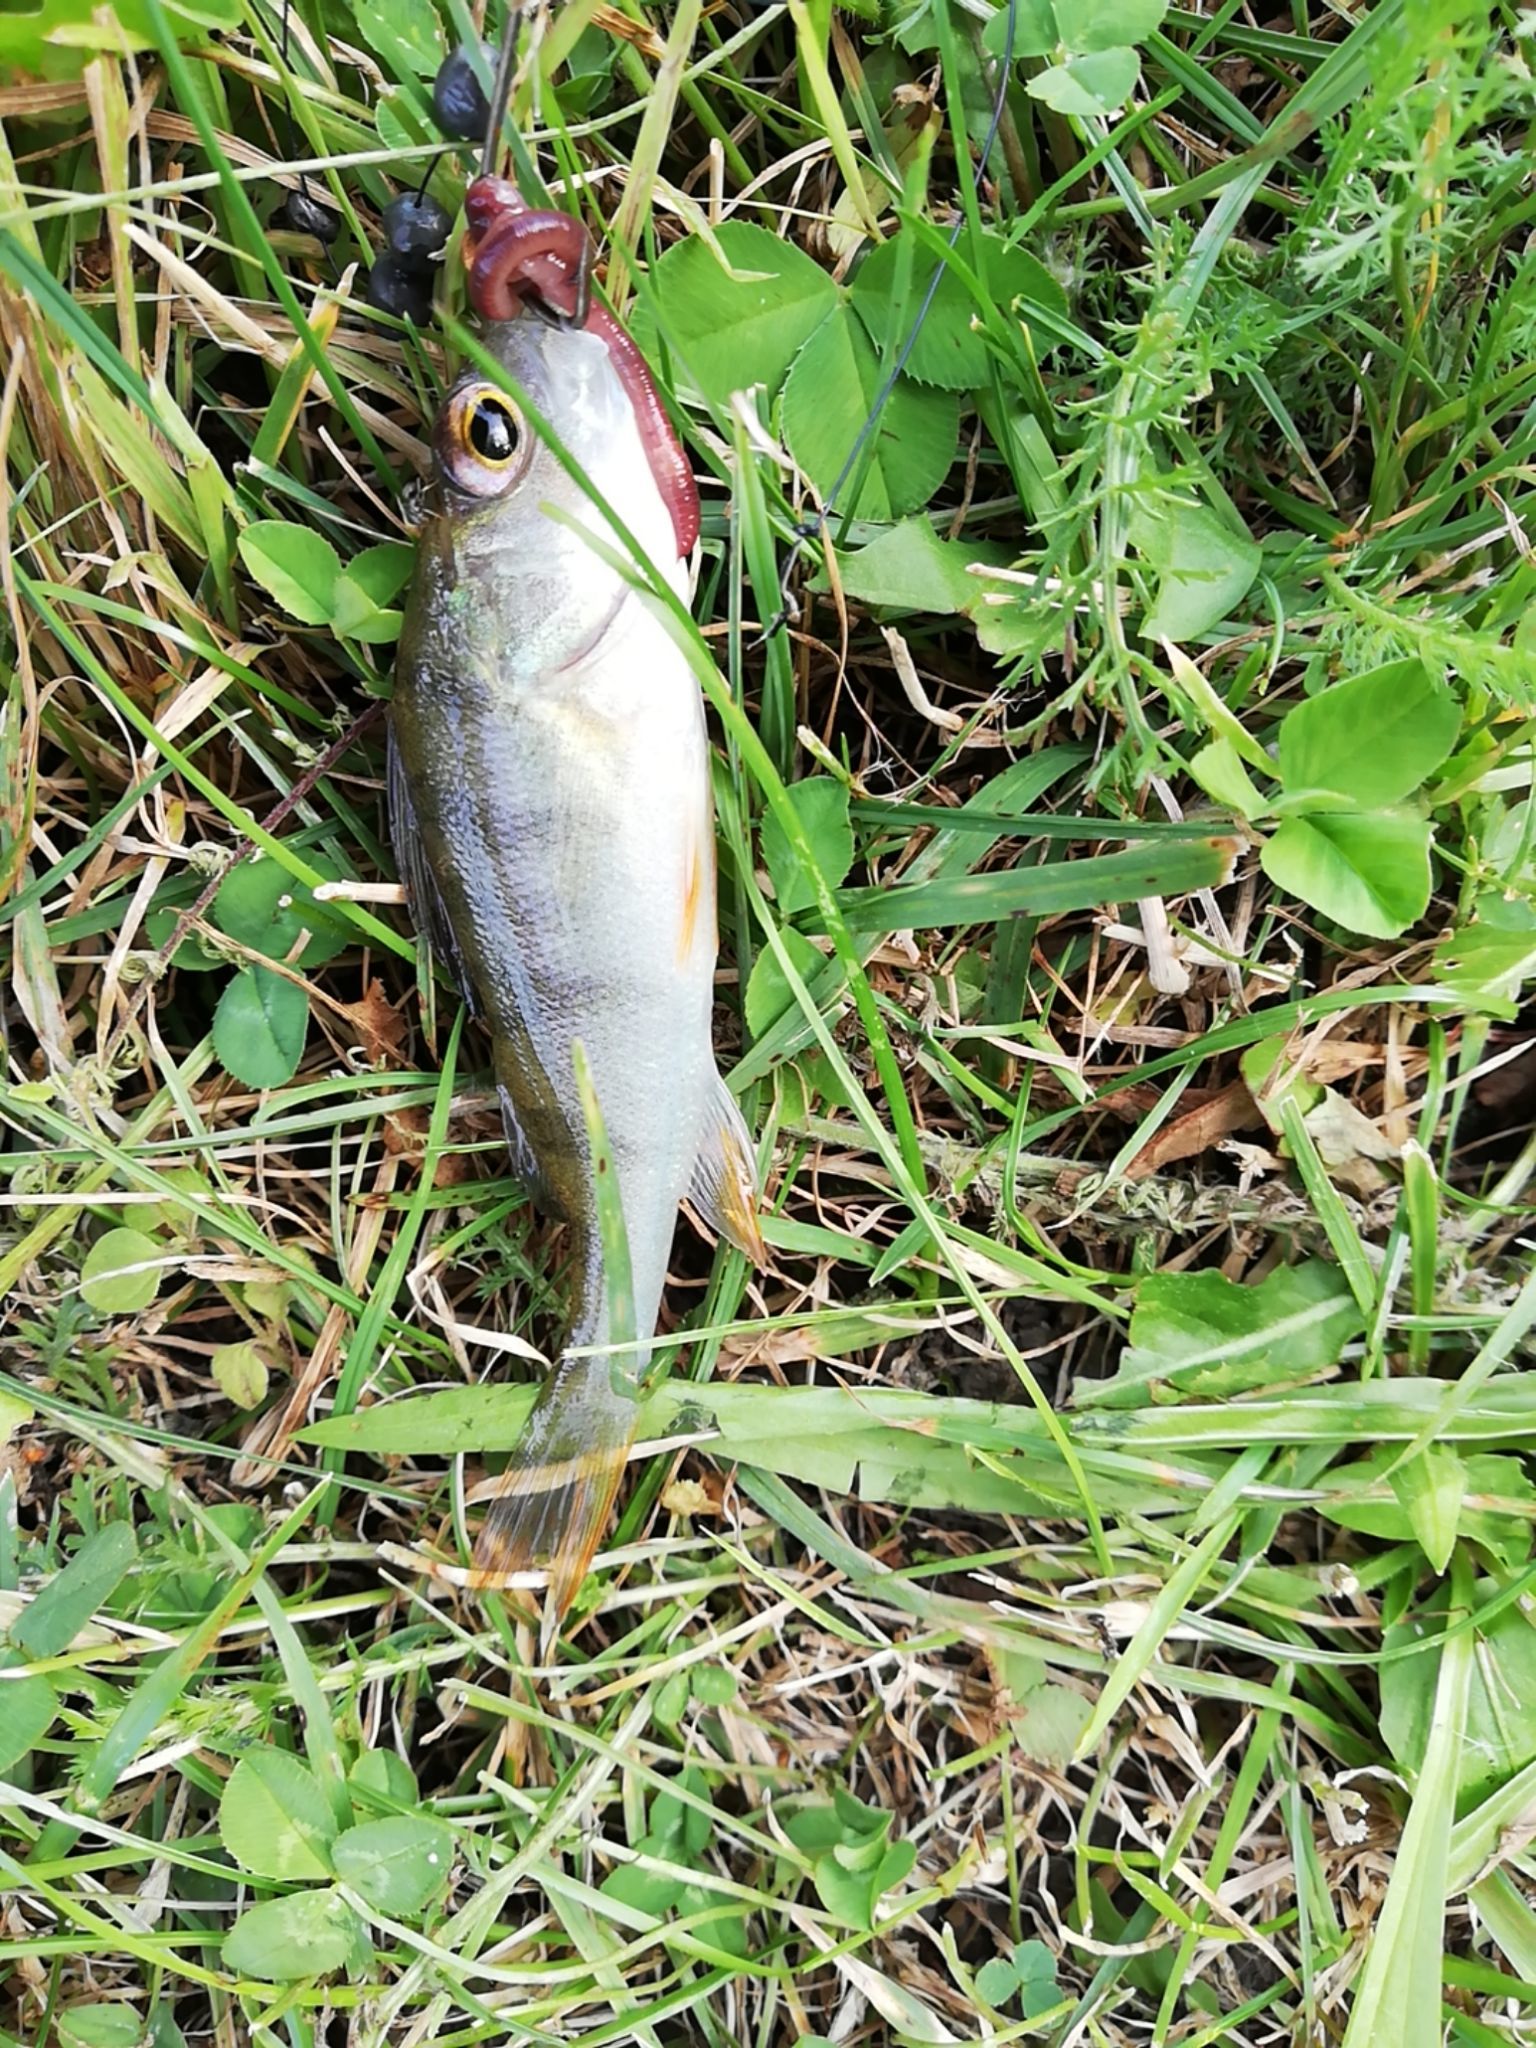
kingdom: Animalia
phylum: Chordata
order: Perciformes
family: Percidae
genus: Perca
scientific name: Perca fluviatilis
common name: Perch
